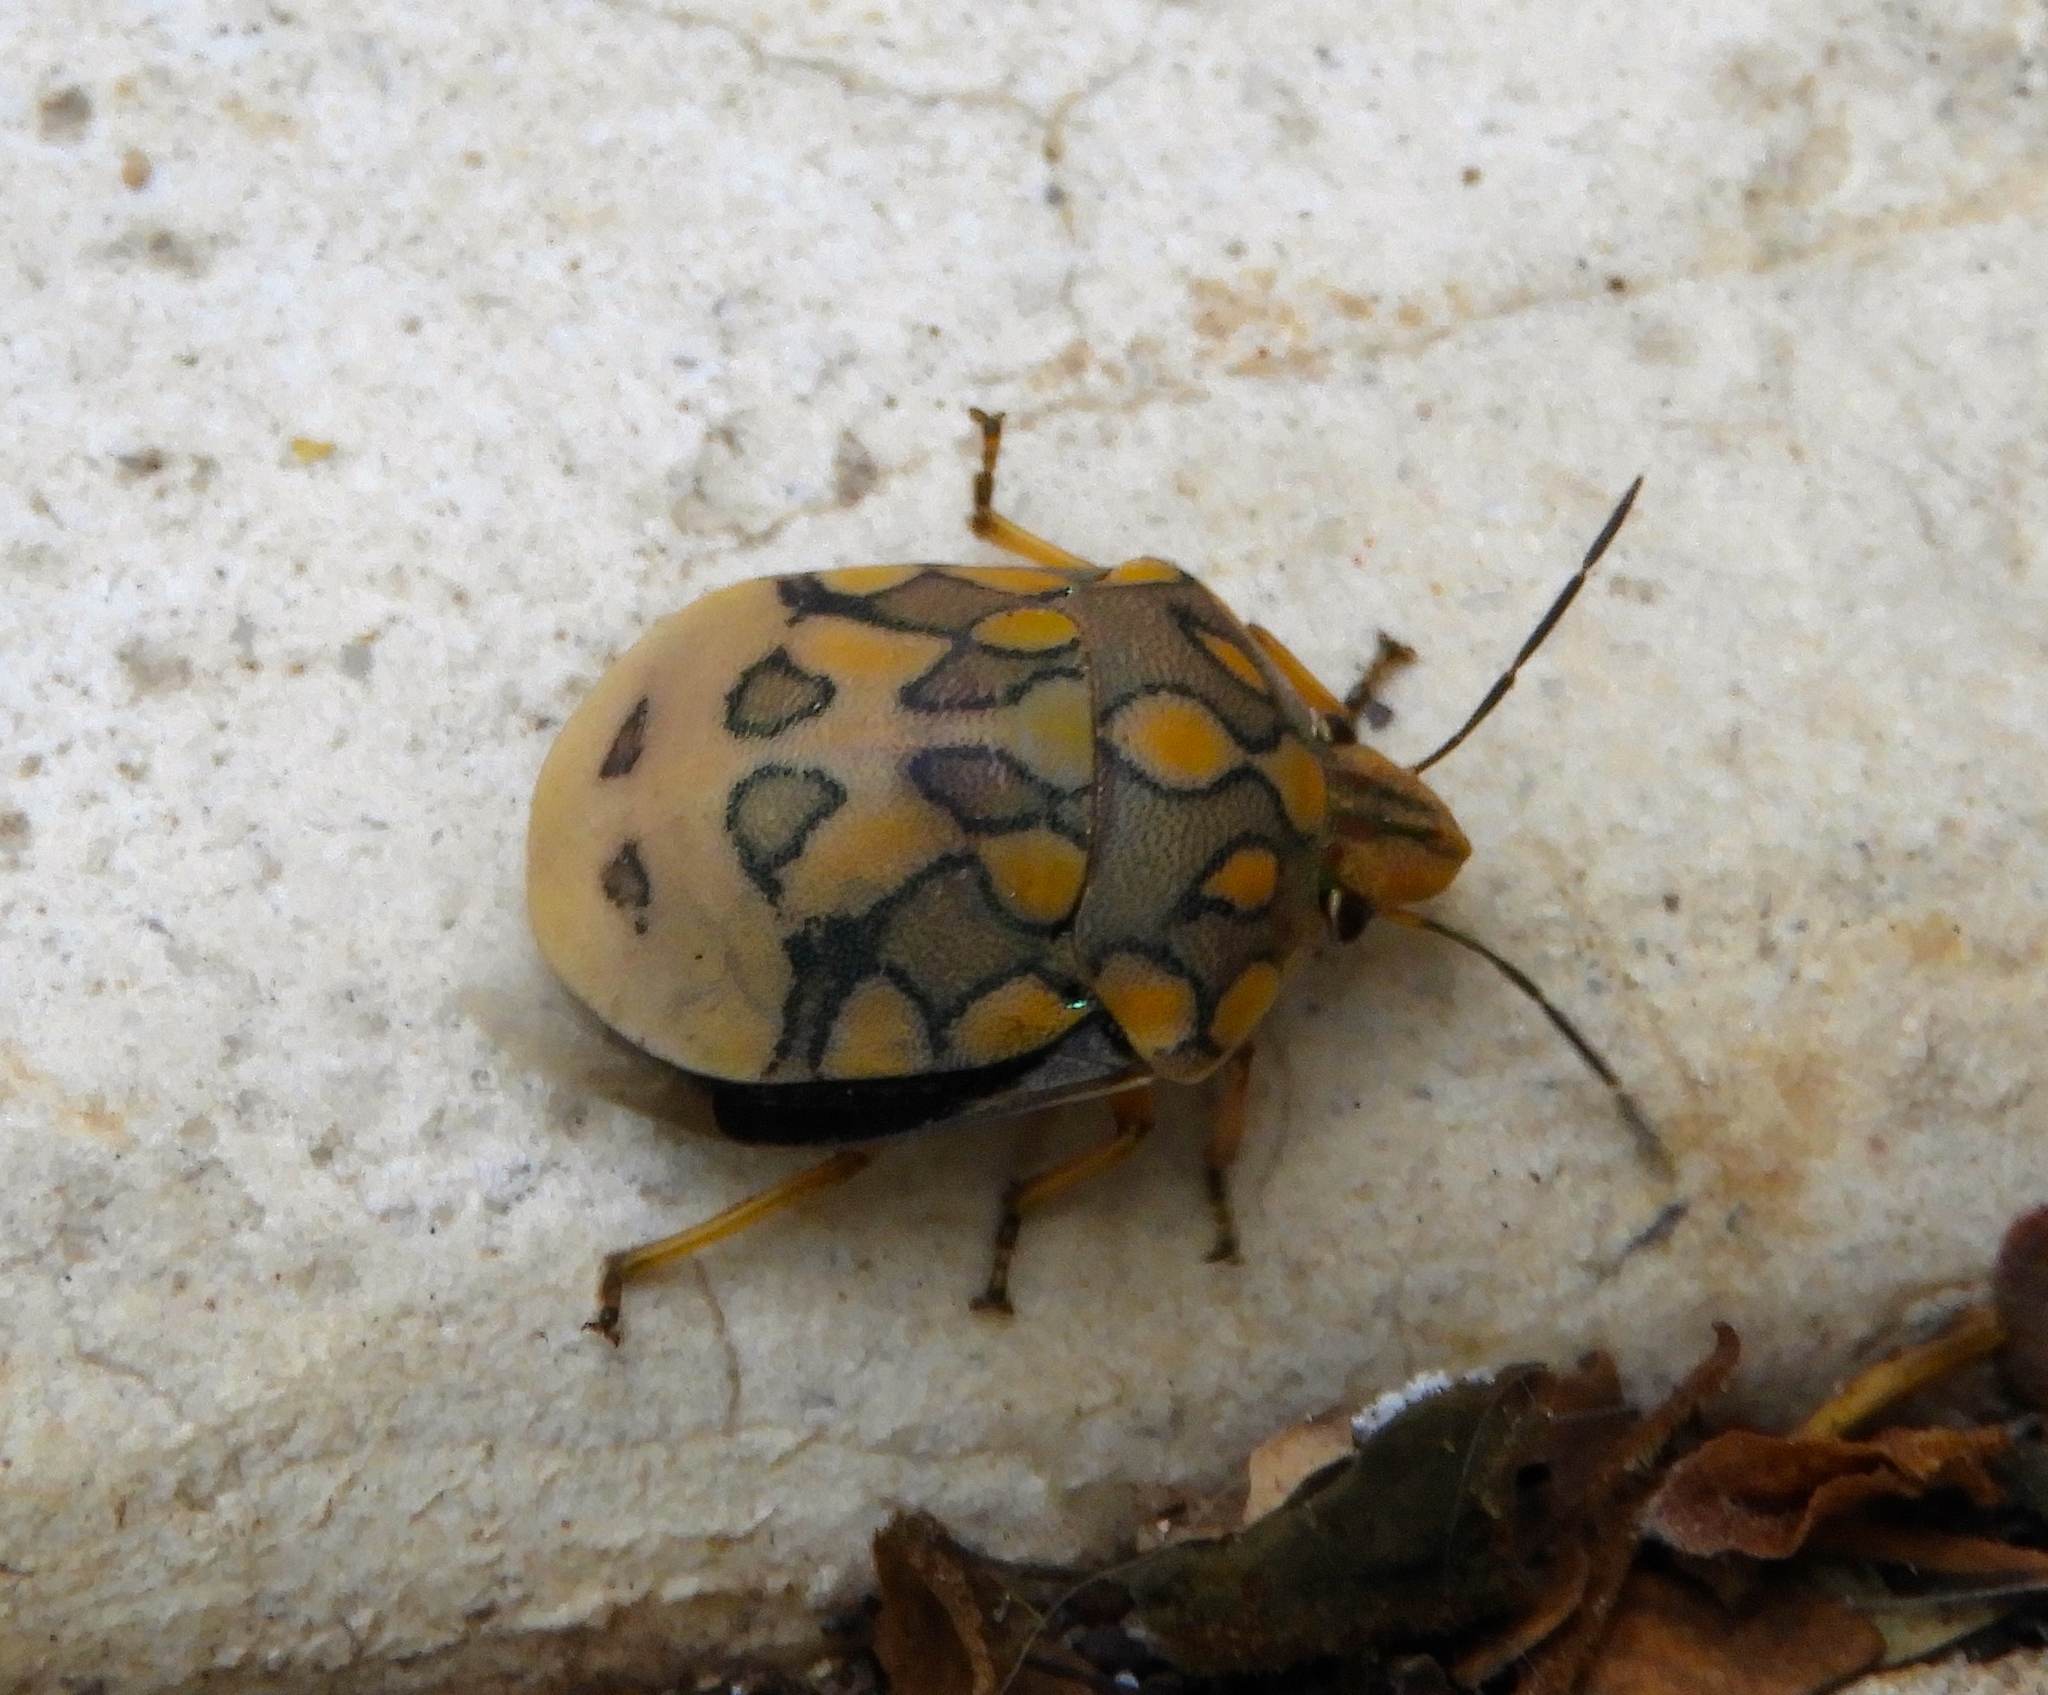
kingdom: Animalia
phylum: Arthropoda
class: Insecta
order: Hemiptera
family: Scutelleridae
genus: Pachycoris
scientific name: Pachycoris
